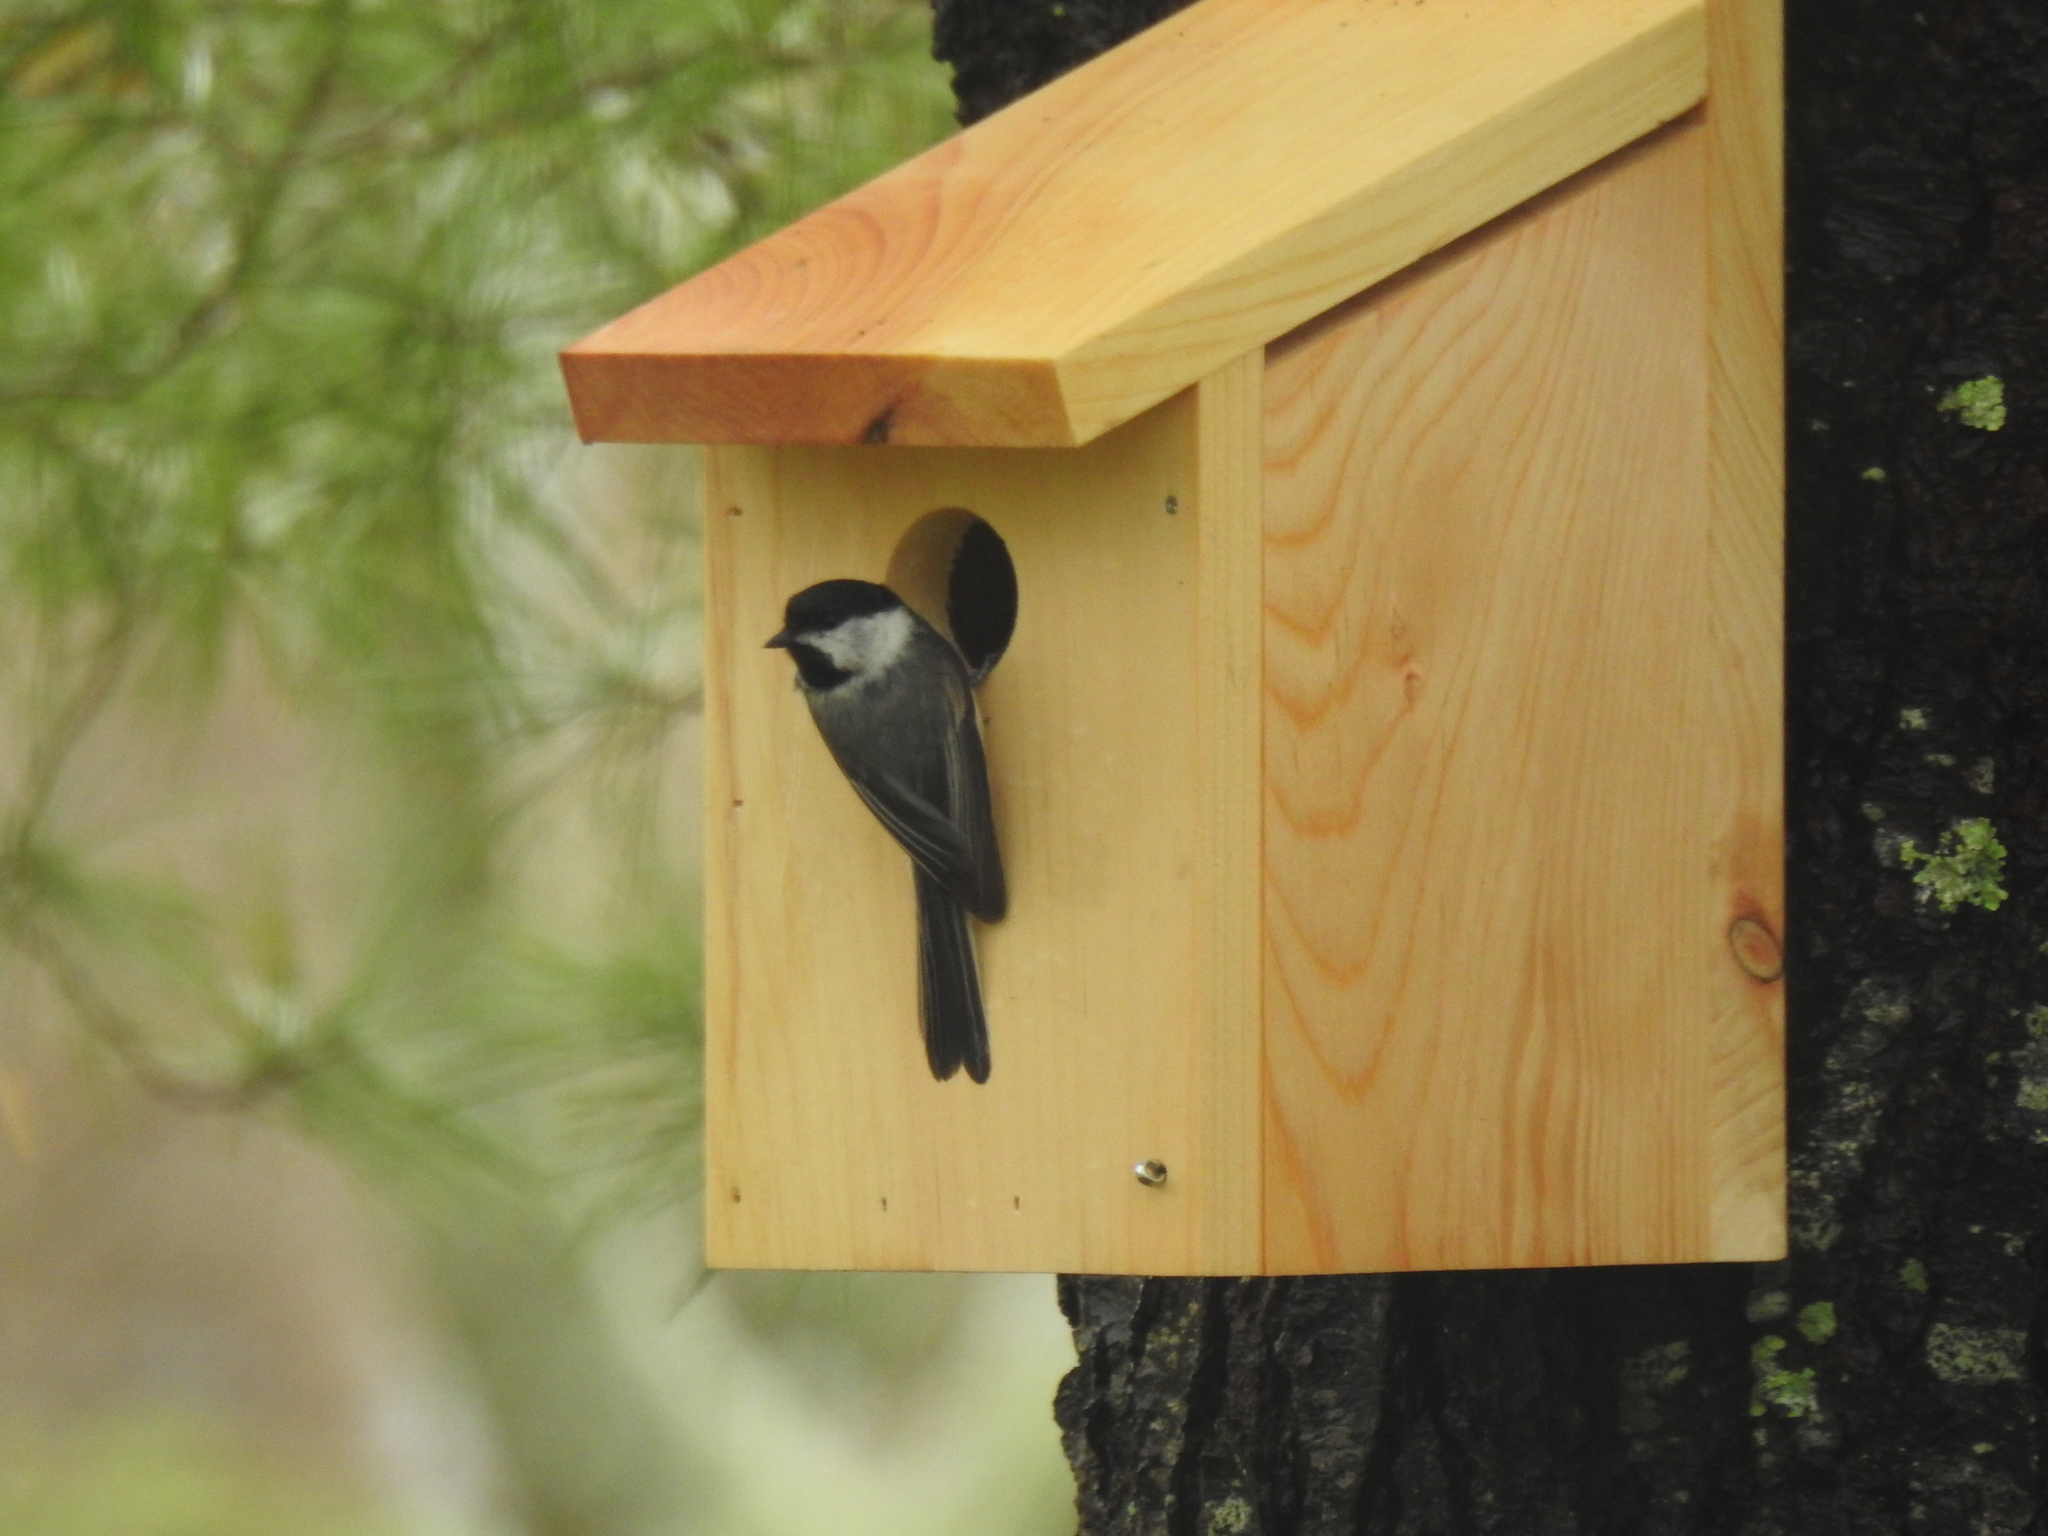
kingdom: Animalia
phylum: Chordata
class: Aves
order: Passeriformes
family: Paridae
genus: Poecile
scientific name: Poecile atricapillus
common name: Black-capped chickadee
